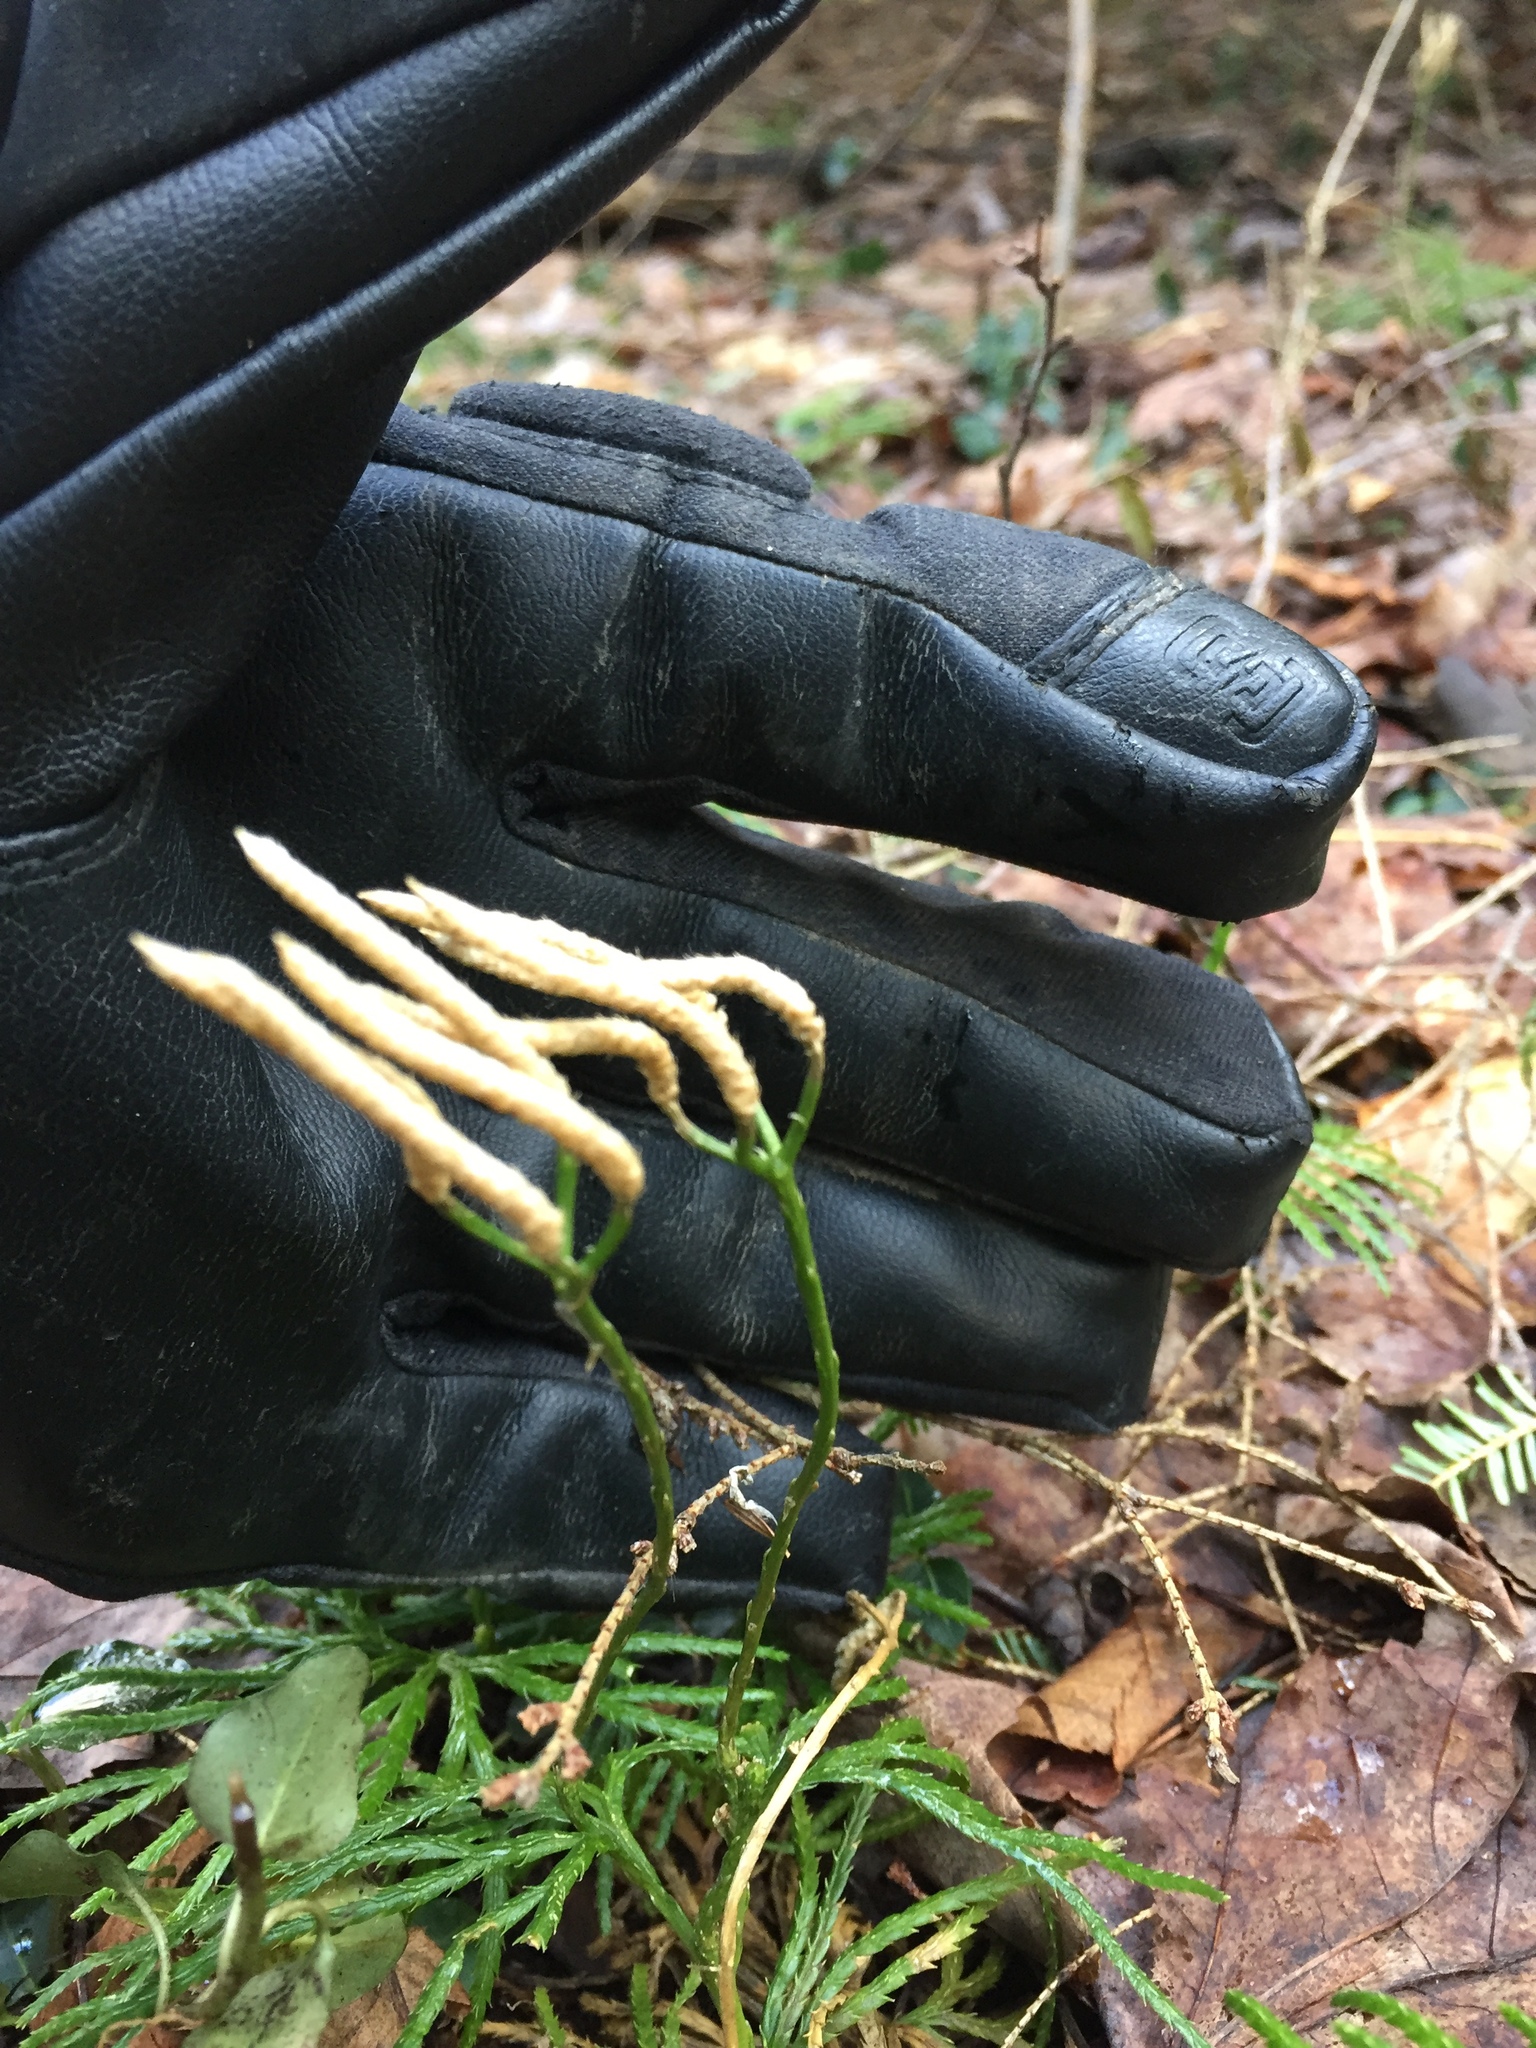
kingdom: Plantae
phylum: Tracheophyta
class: Lycopodiopsida
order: Lycopodiales
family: Lycopodiaceae
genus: Diphasiastrum
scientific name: Diphasiastrum digitatum
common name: Southern running-pine
